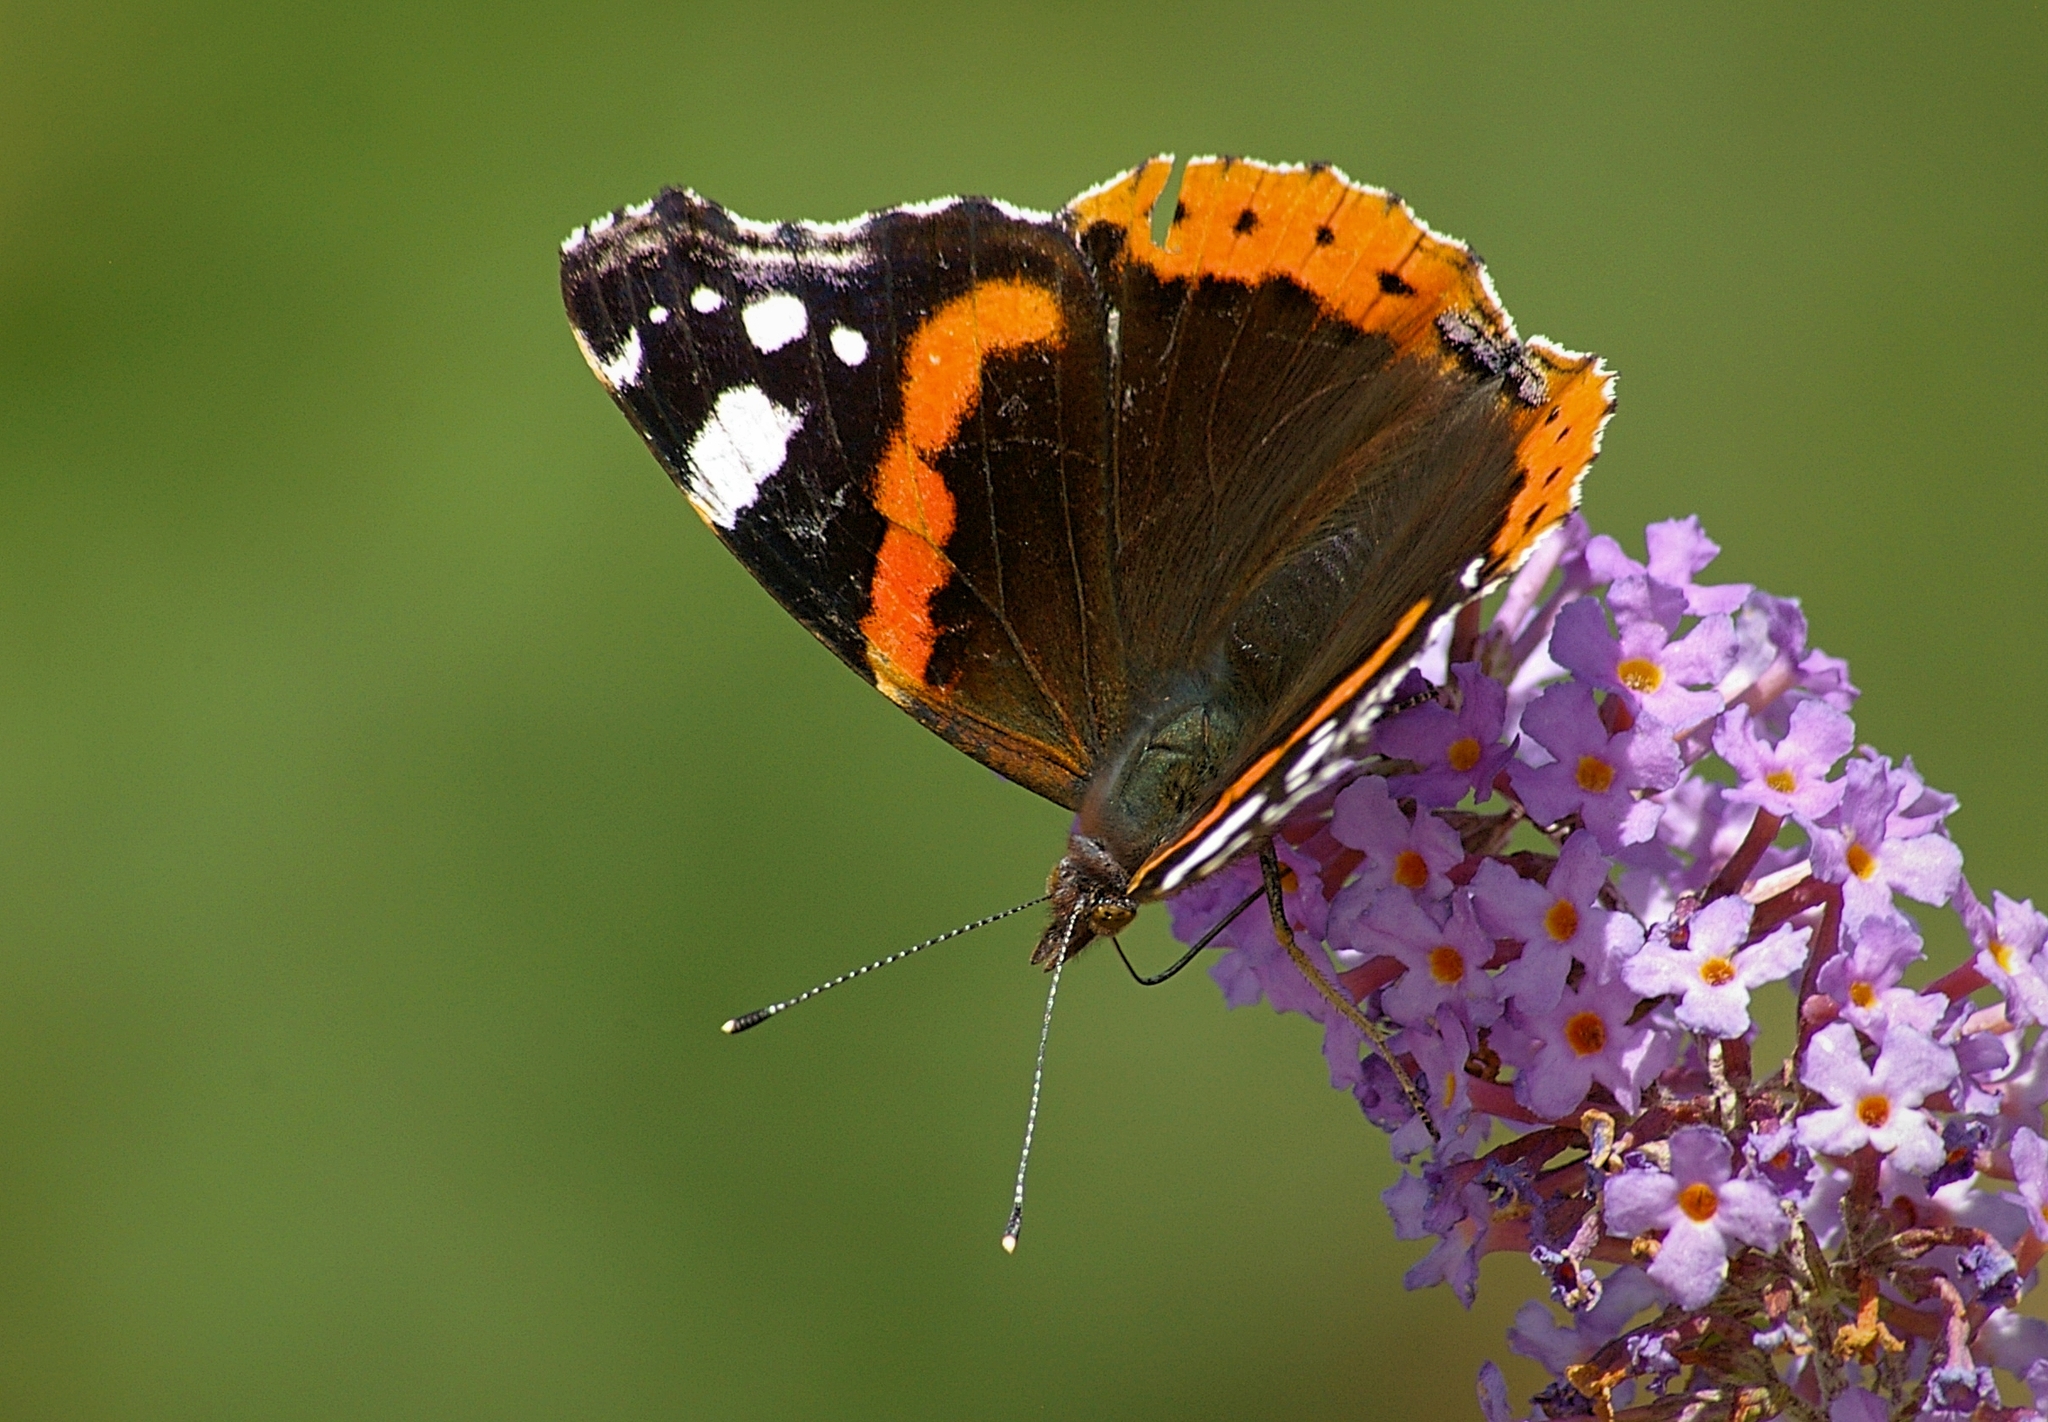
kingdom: Animalia
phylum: Arthropoda
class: Insecta
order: Lepidoptera
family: Nymphalidae
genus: Vanessa
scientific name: Vanessa atalanta
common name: Red admiral
